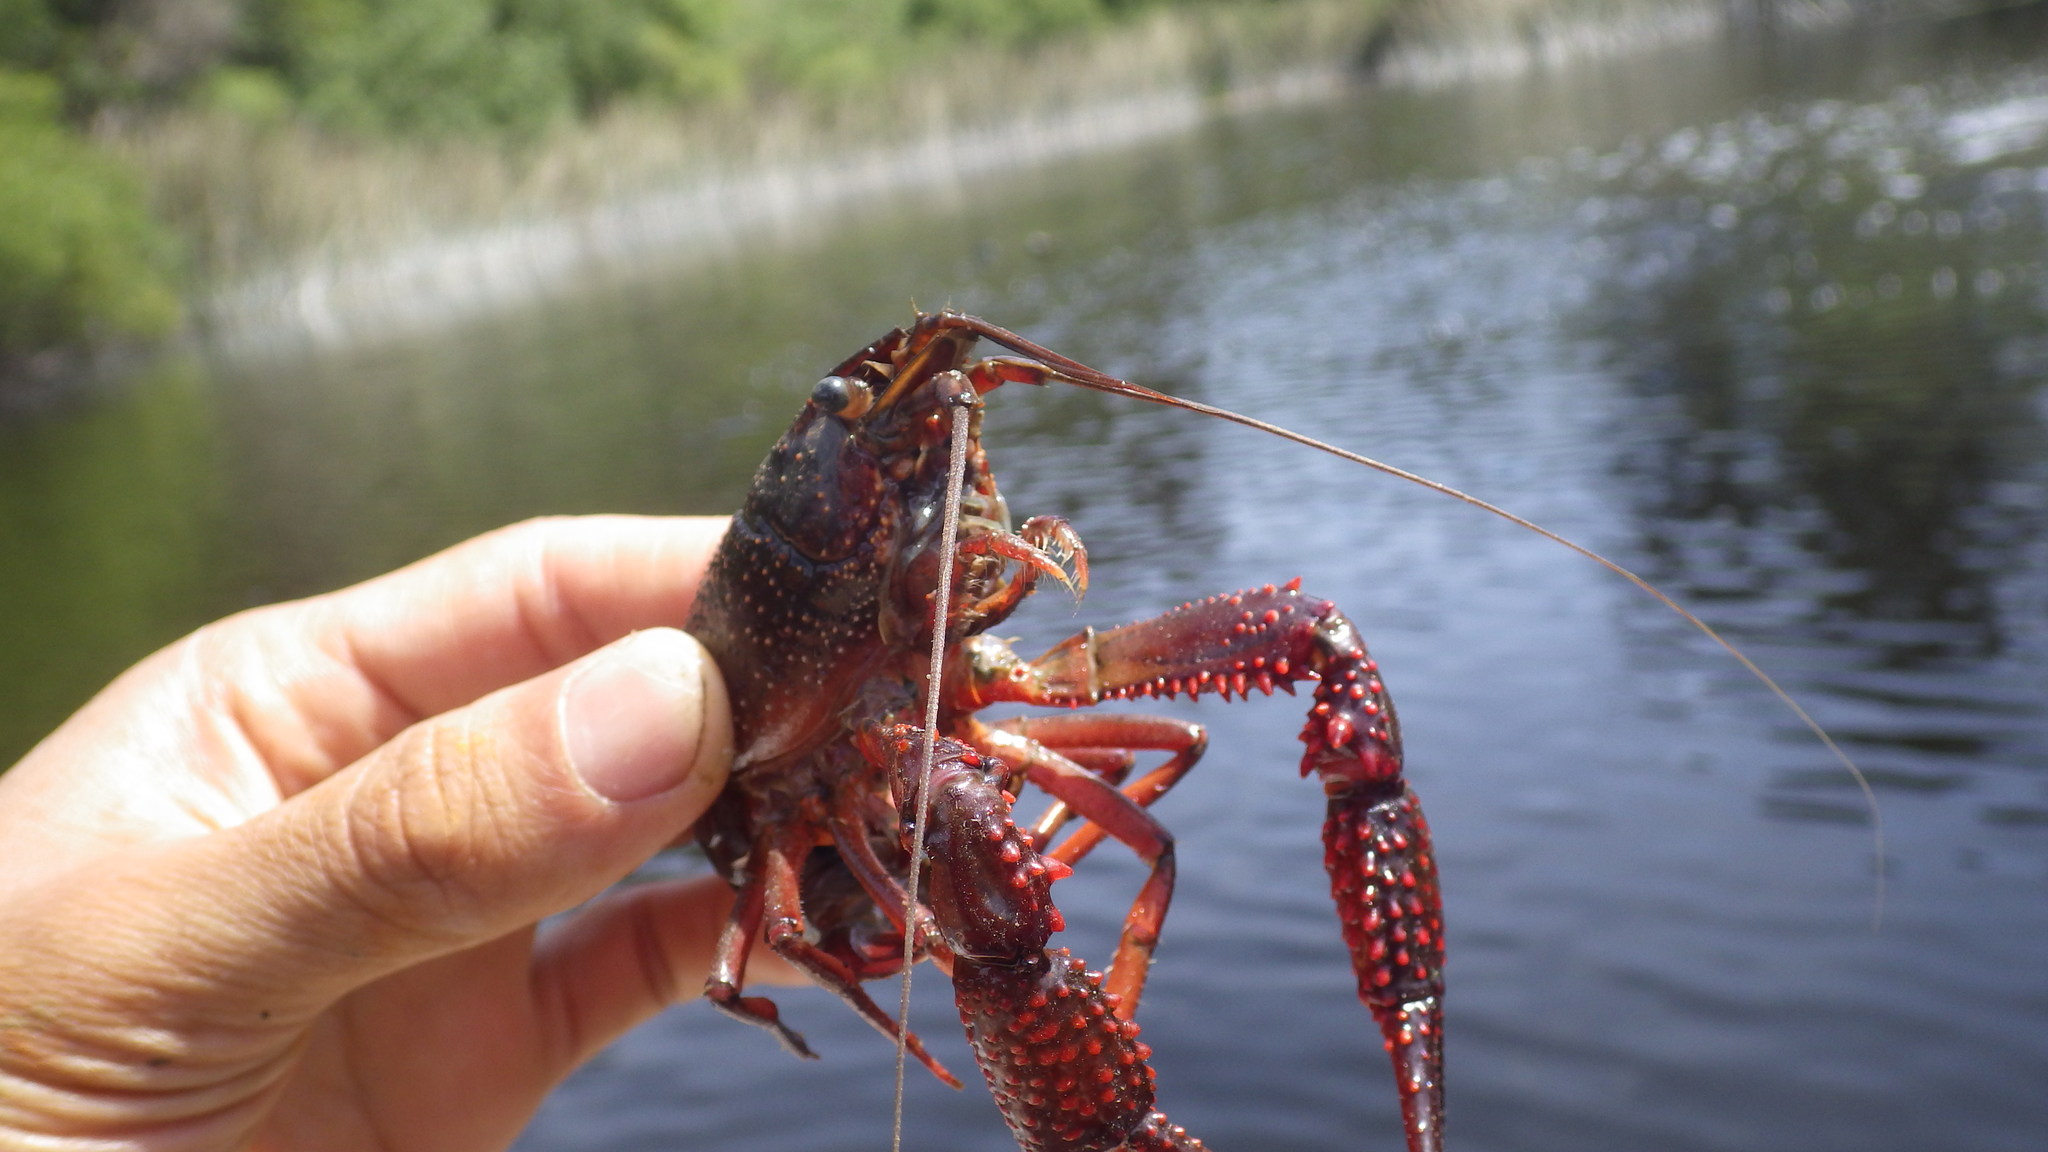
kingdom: Animalia
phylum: Arthropoda
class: Malacostraca
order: Decapoda
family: Cambaridae
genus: Procambarus
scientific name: Procambarus clarkii
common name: Red swamp crayfish
